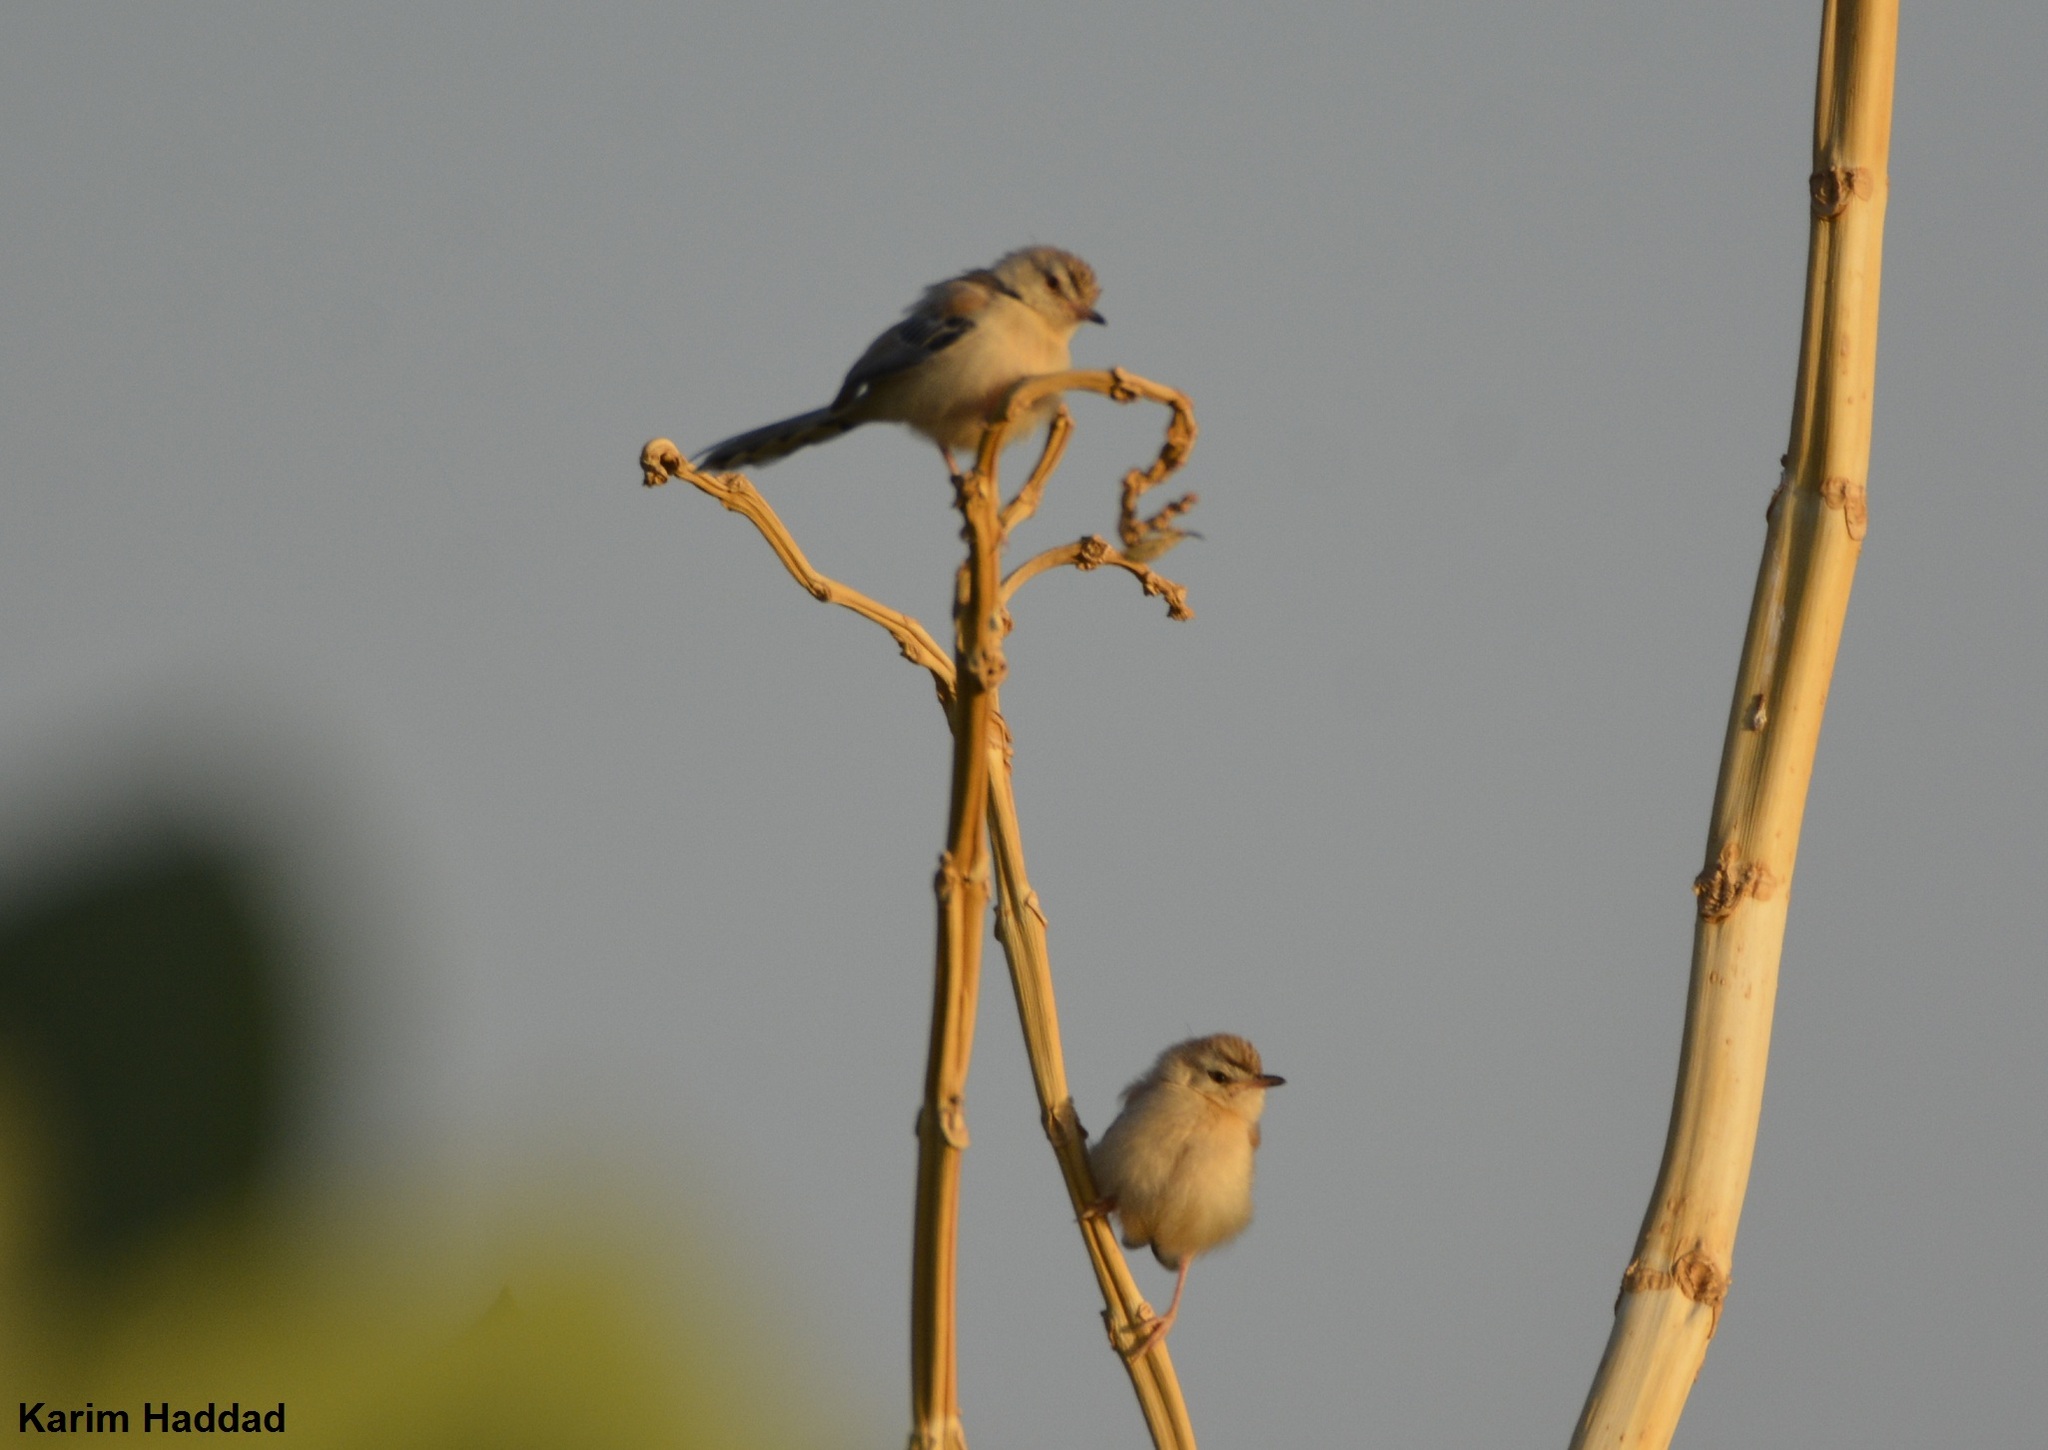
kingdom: Animalia
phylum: Chordata
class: Aves
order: Passeriformes
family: Cisticolidae
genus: Spiloptila
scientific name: Spiloptila clamans
